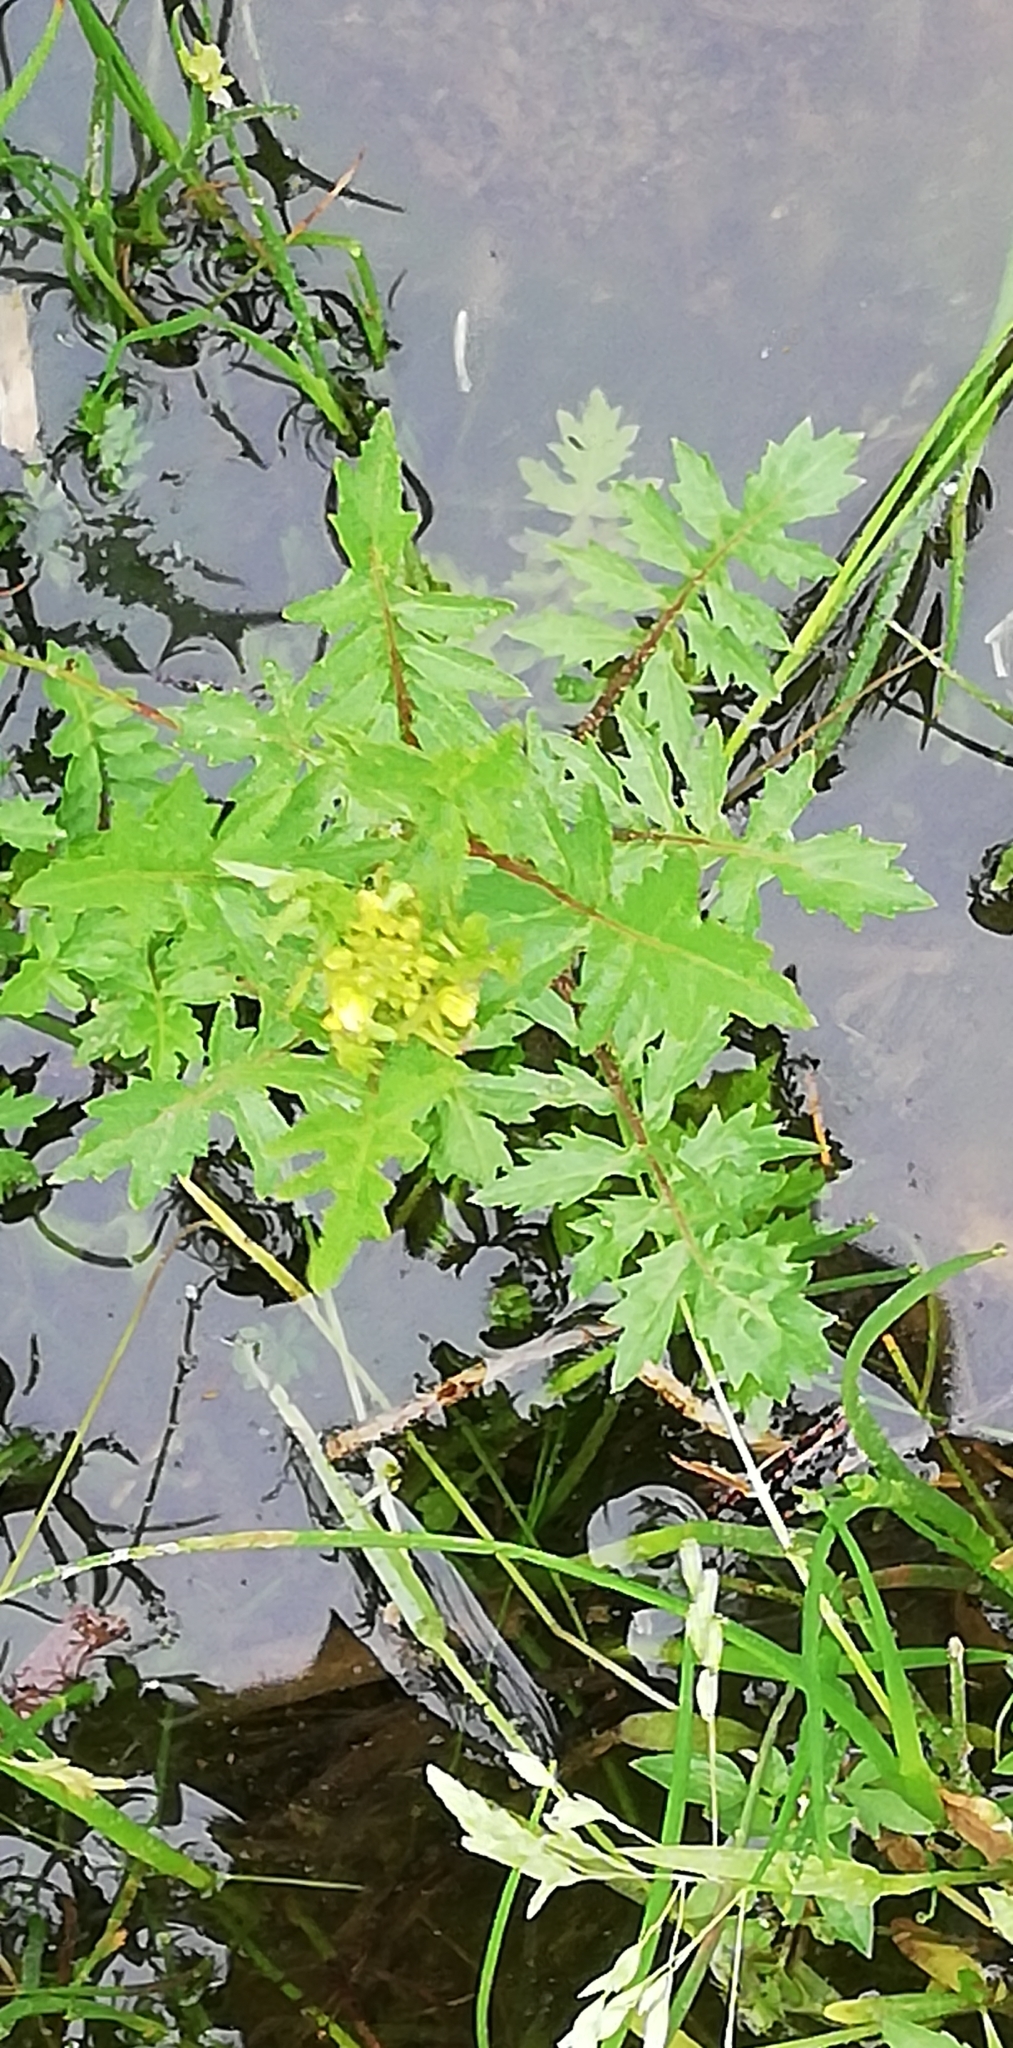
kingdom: Plantae
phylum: Tracheophyta
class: Magnoliopsida
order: Brassicales
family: Brassicaceae
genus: Rorippa
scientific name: Rorippa palustris
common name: Marsh yellow-cress
